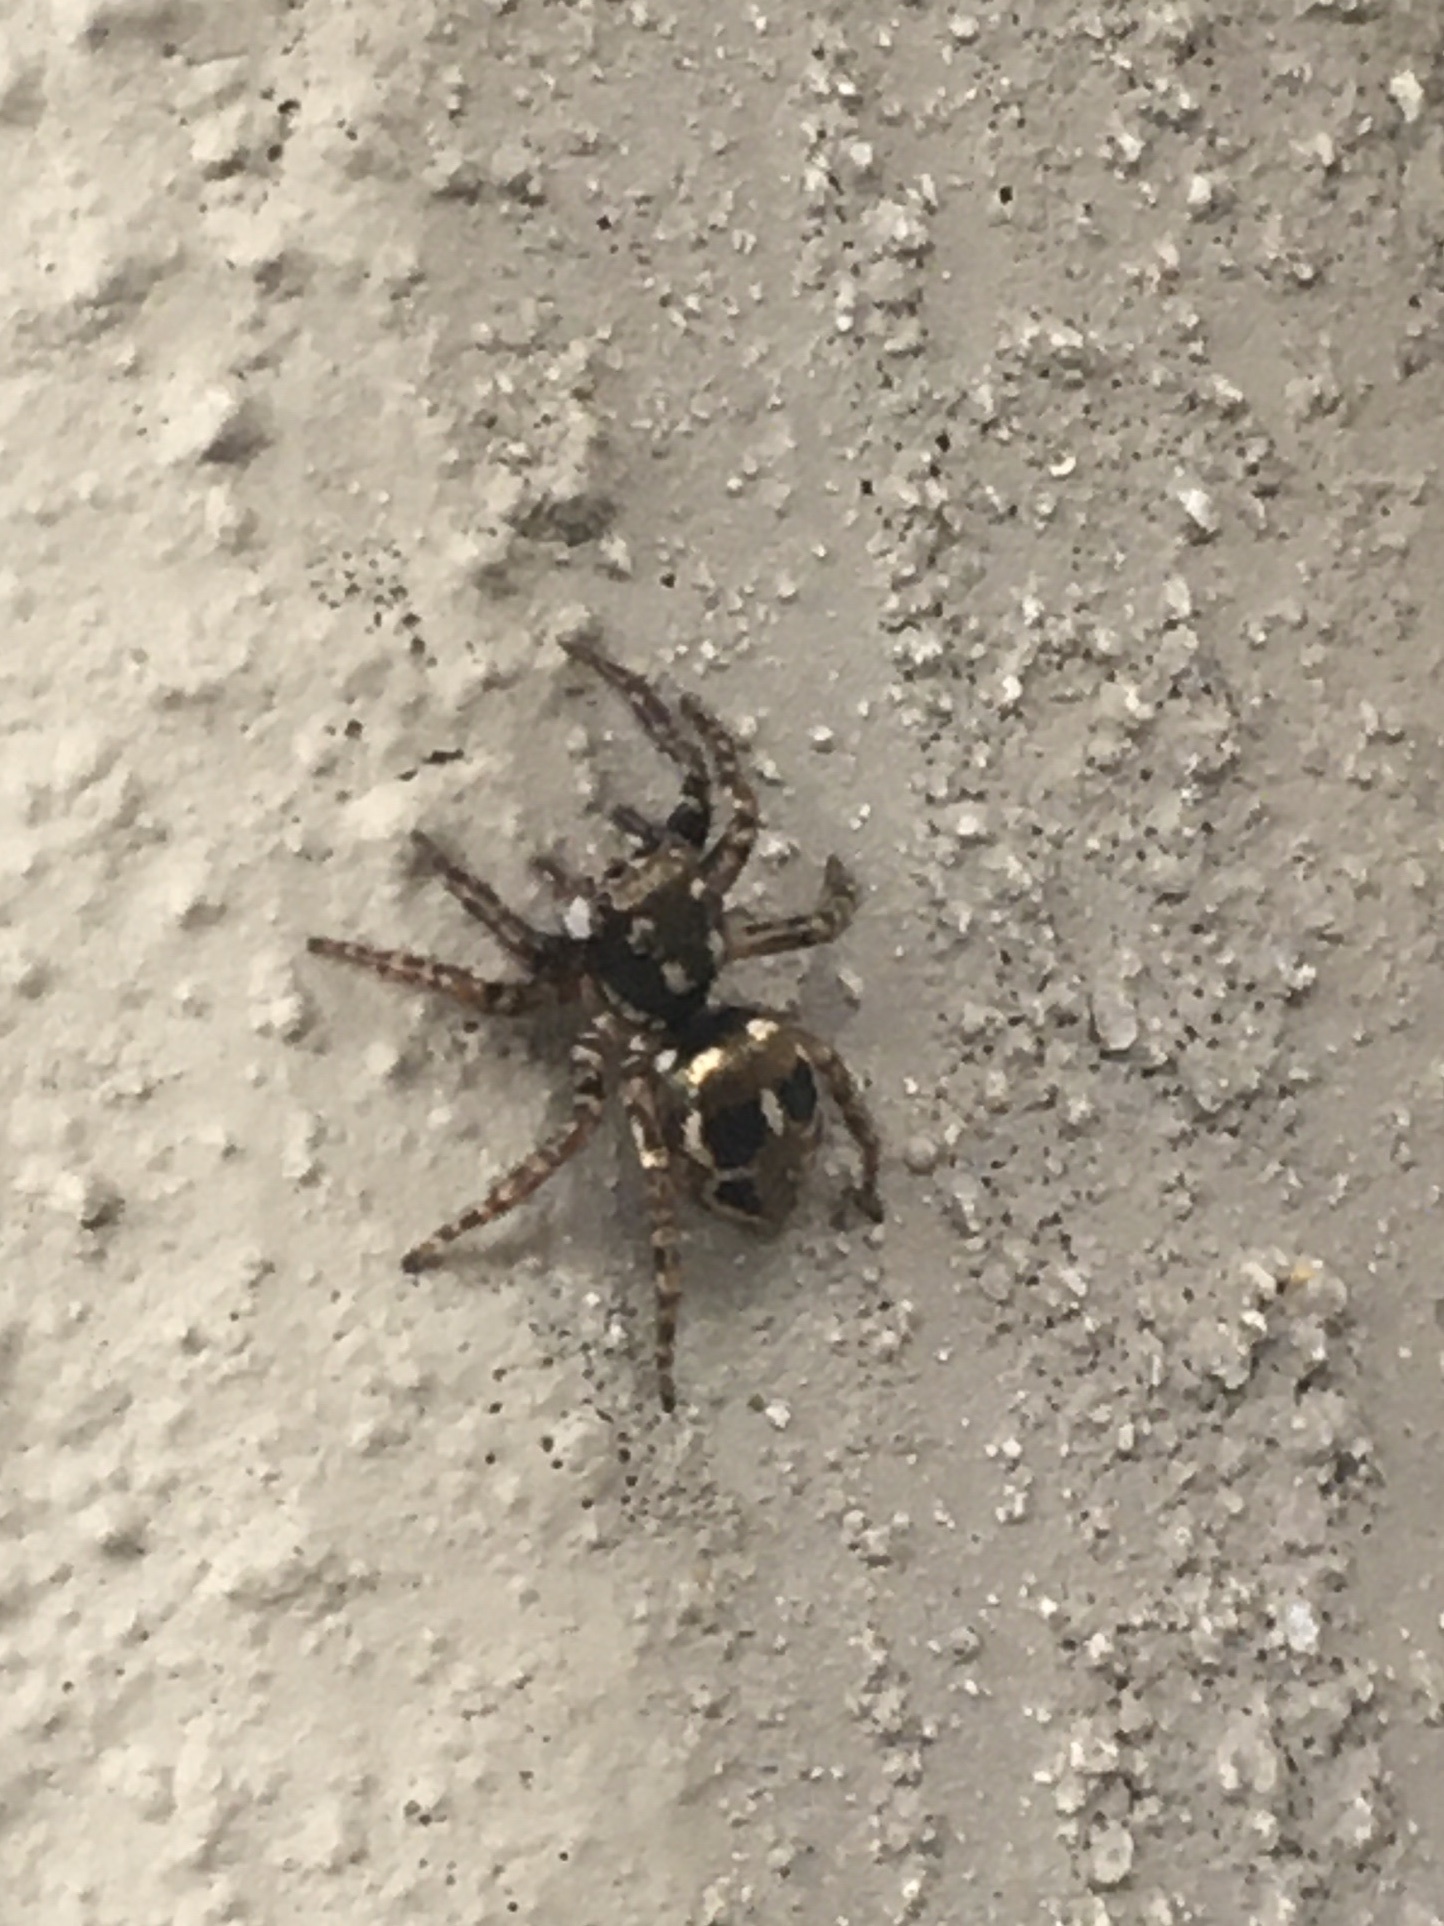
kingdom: Animalia
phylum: Arthropoda
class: Arachnida
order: Araneae
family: Salticidae
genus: Anasaitis
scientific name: Anasaitis canosa
